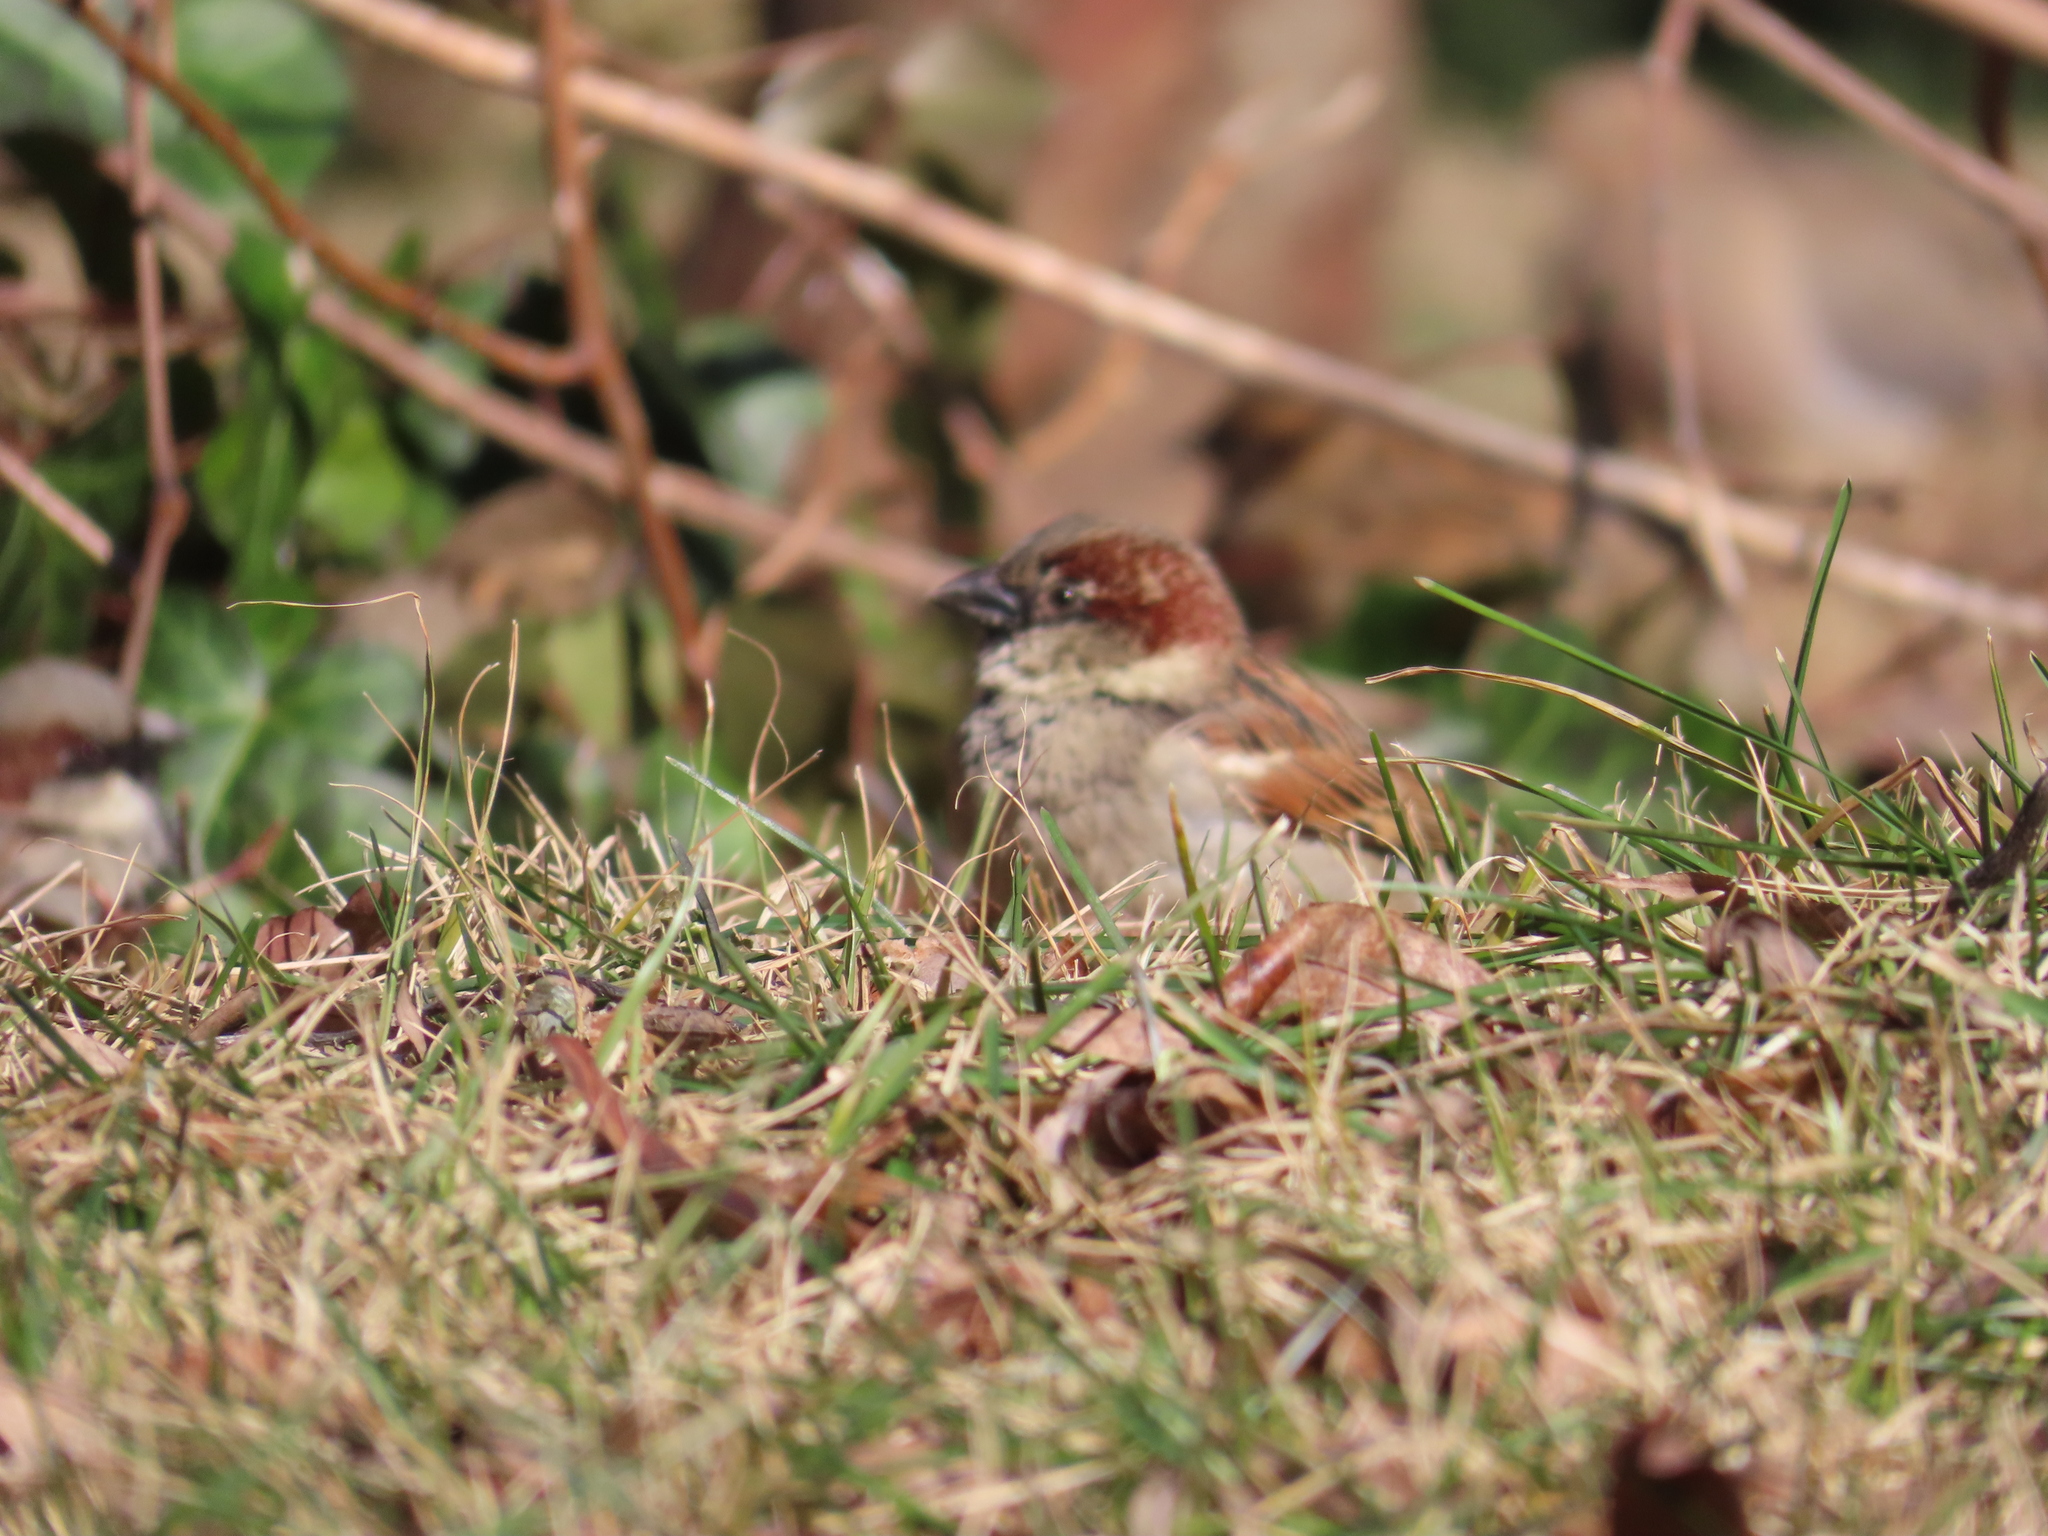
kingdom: Animalia
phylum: Chordata
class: Aves
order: Passeriformes
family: Passeridae
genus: Passer
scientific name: Passer domesticus
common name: House sparrow
